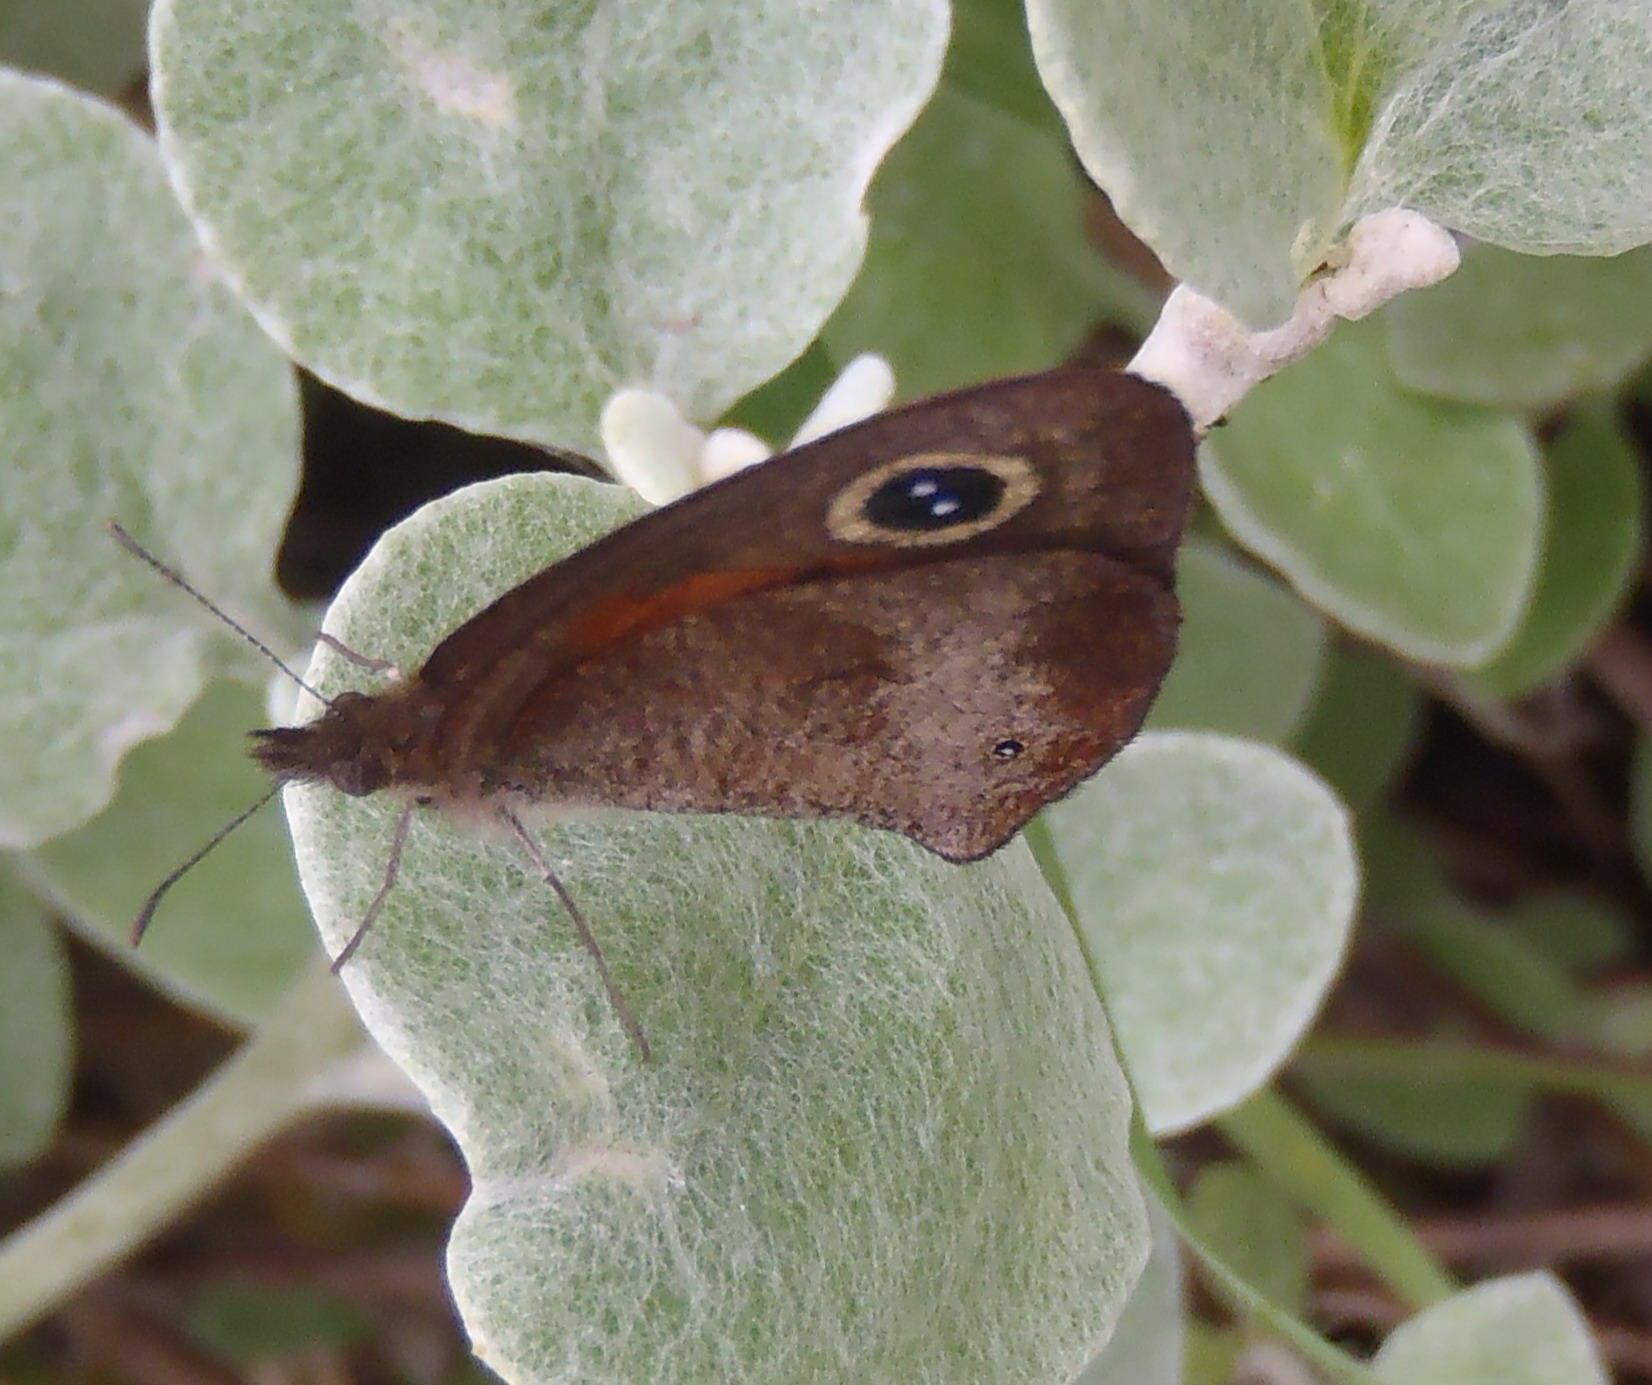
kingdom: Animalia
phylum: Arthropoda
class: Insecta
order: Lepidoptera
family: Nymphalidae
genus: Cassionympha
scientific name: Cassionympha cassius
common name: Rainforest brown
